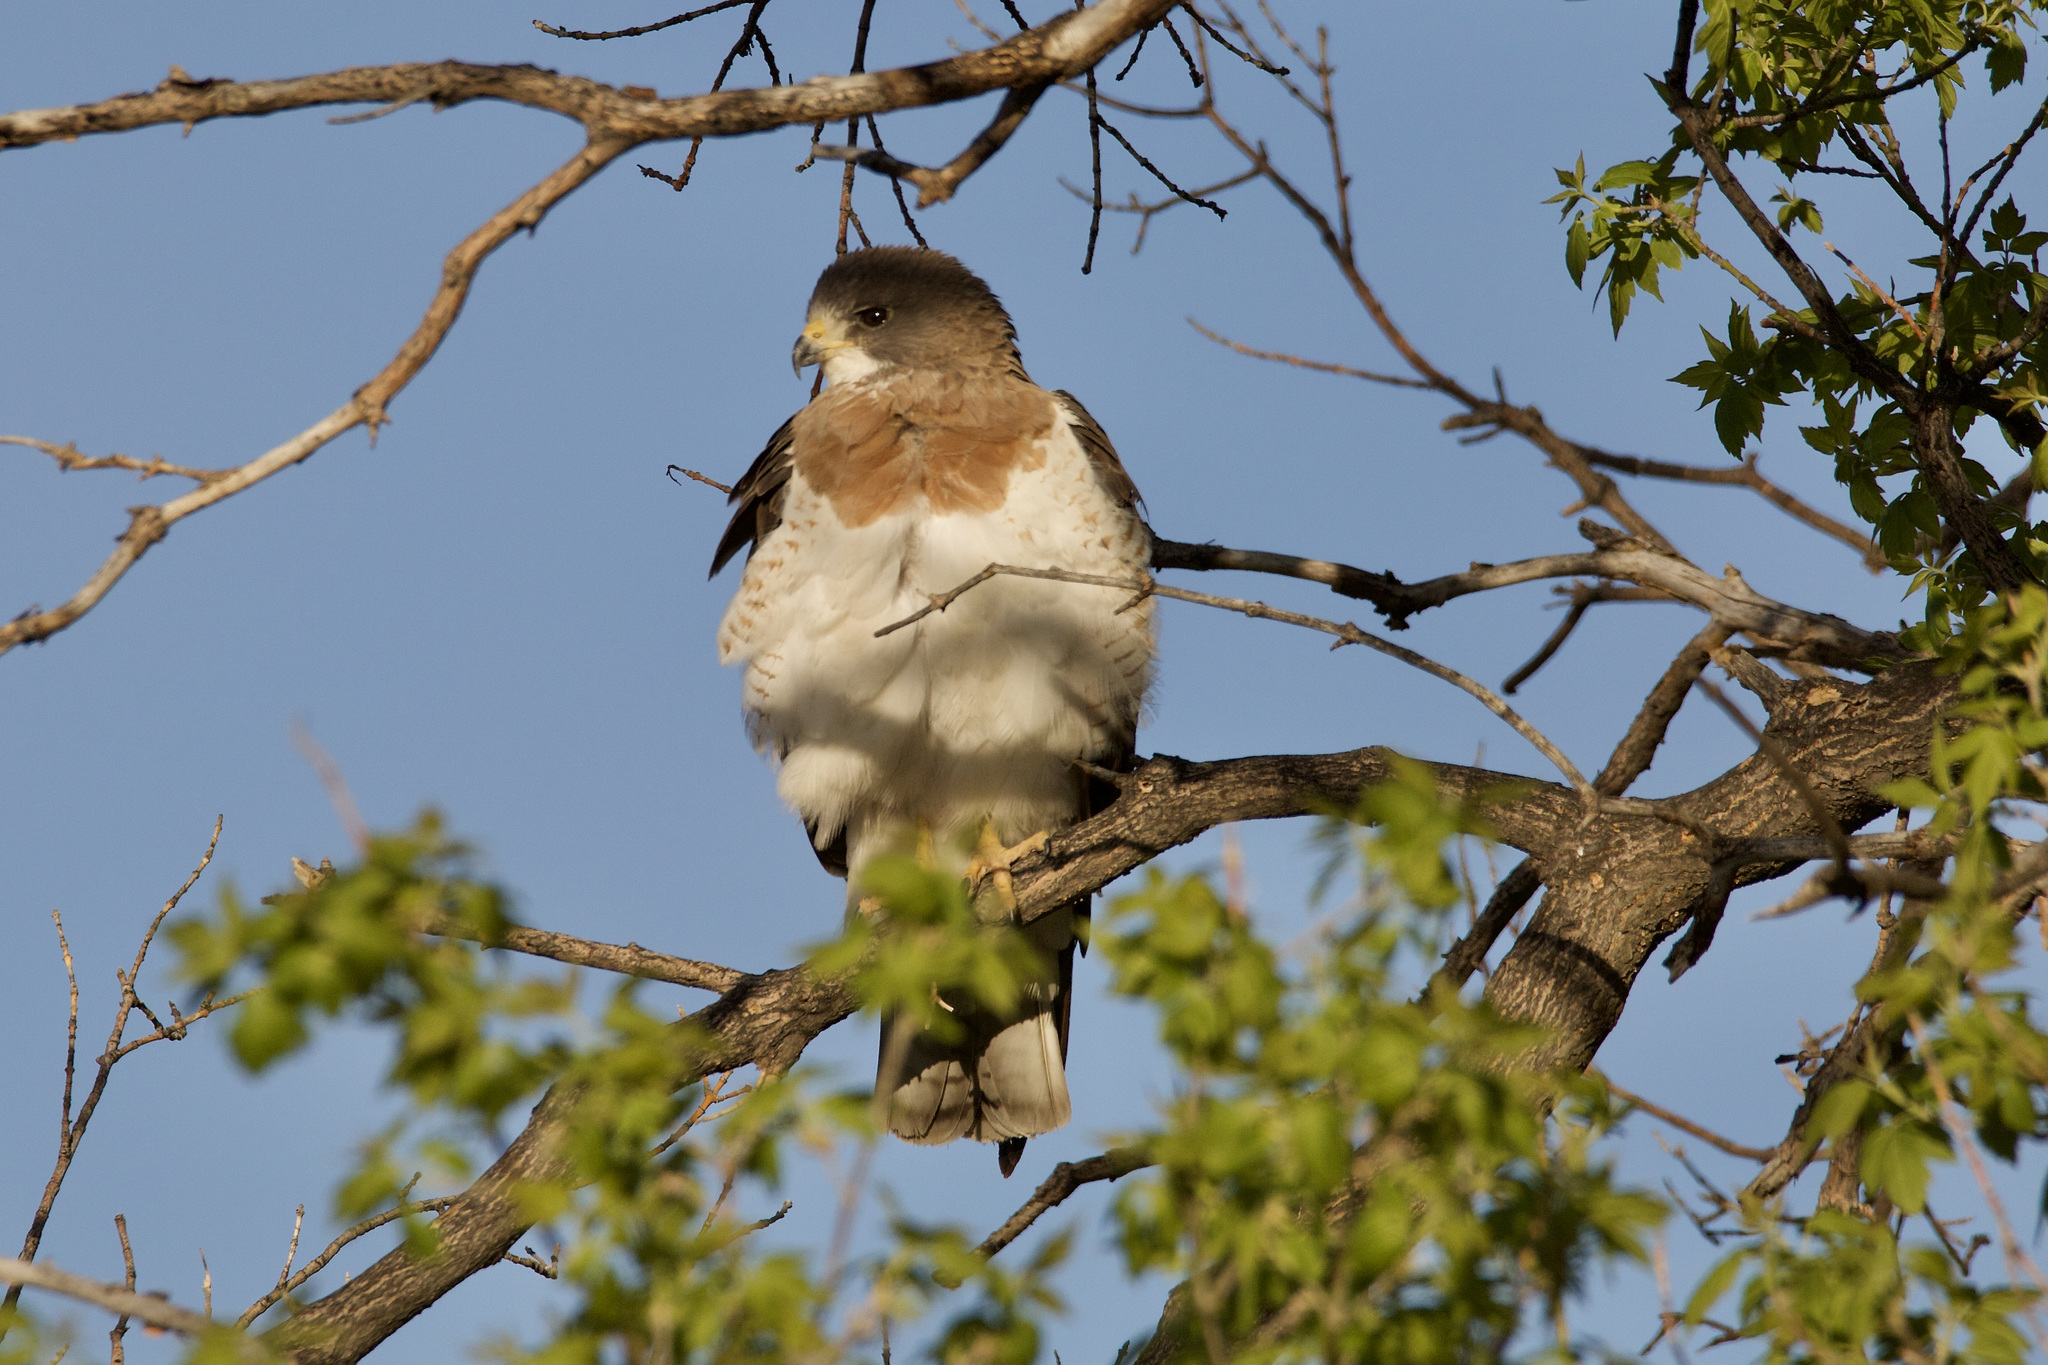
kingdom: Animalia
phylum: Chordata
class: Aves
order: Accipitriformes
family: Accipitridae
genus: Buteo
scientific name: Buteo swainsoni
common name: Swainson's hawk
